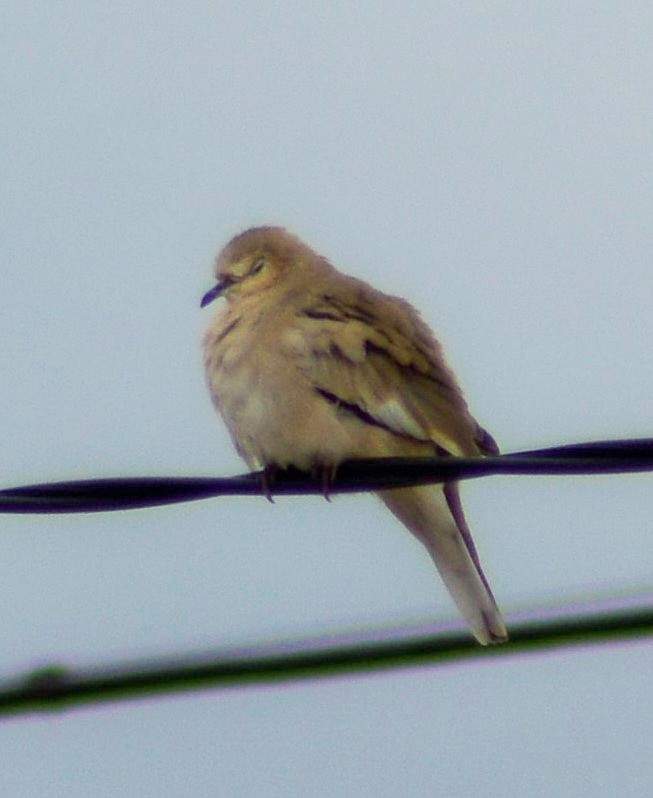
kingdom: Animalia
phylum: Chordata
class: Aves
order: Columbiformes
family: Columbidae
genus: Columbina
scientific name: Columbina picui
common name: Picui ground dove
